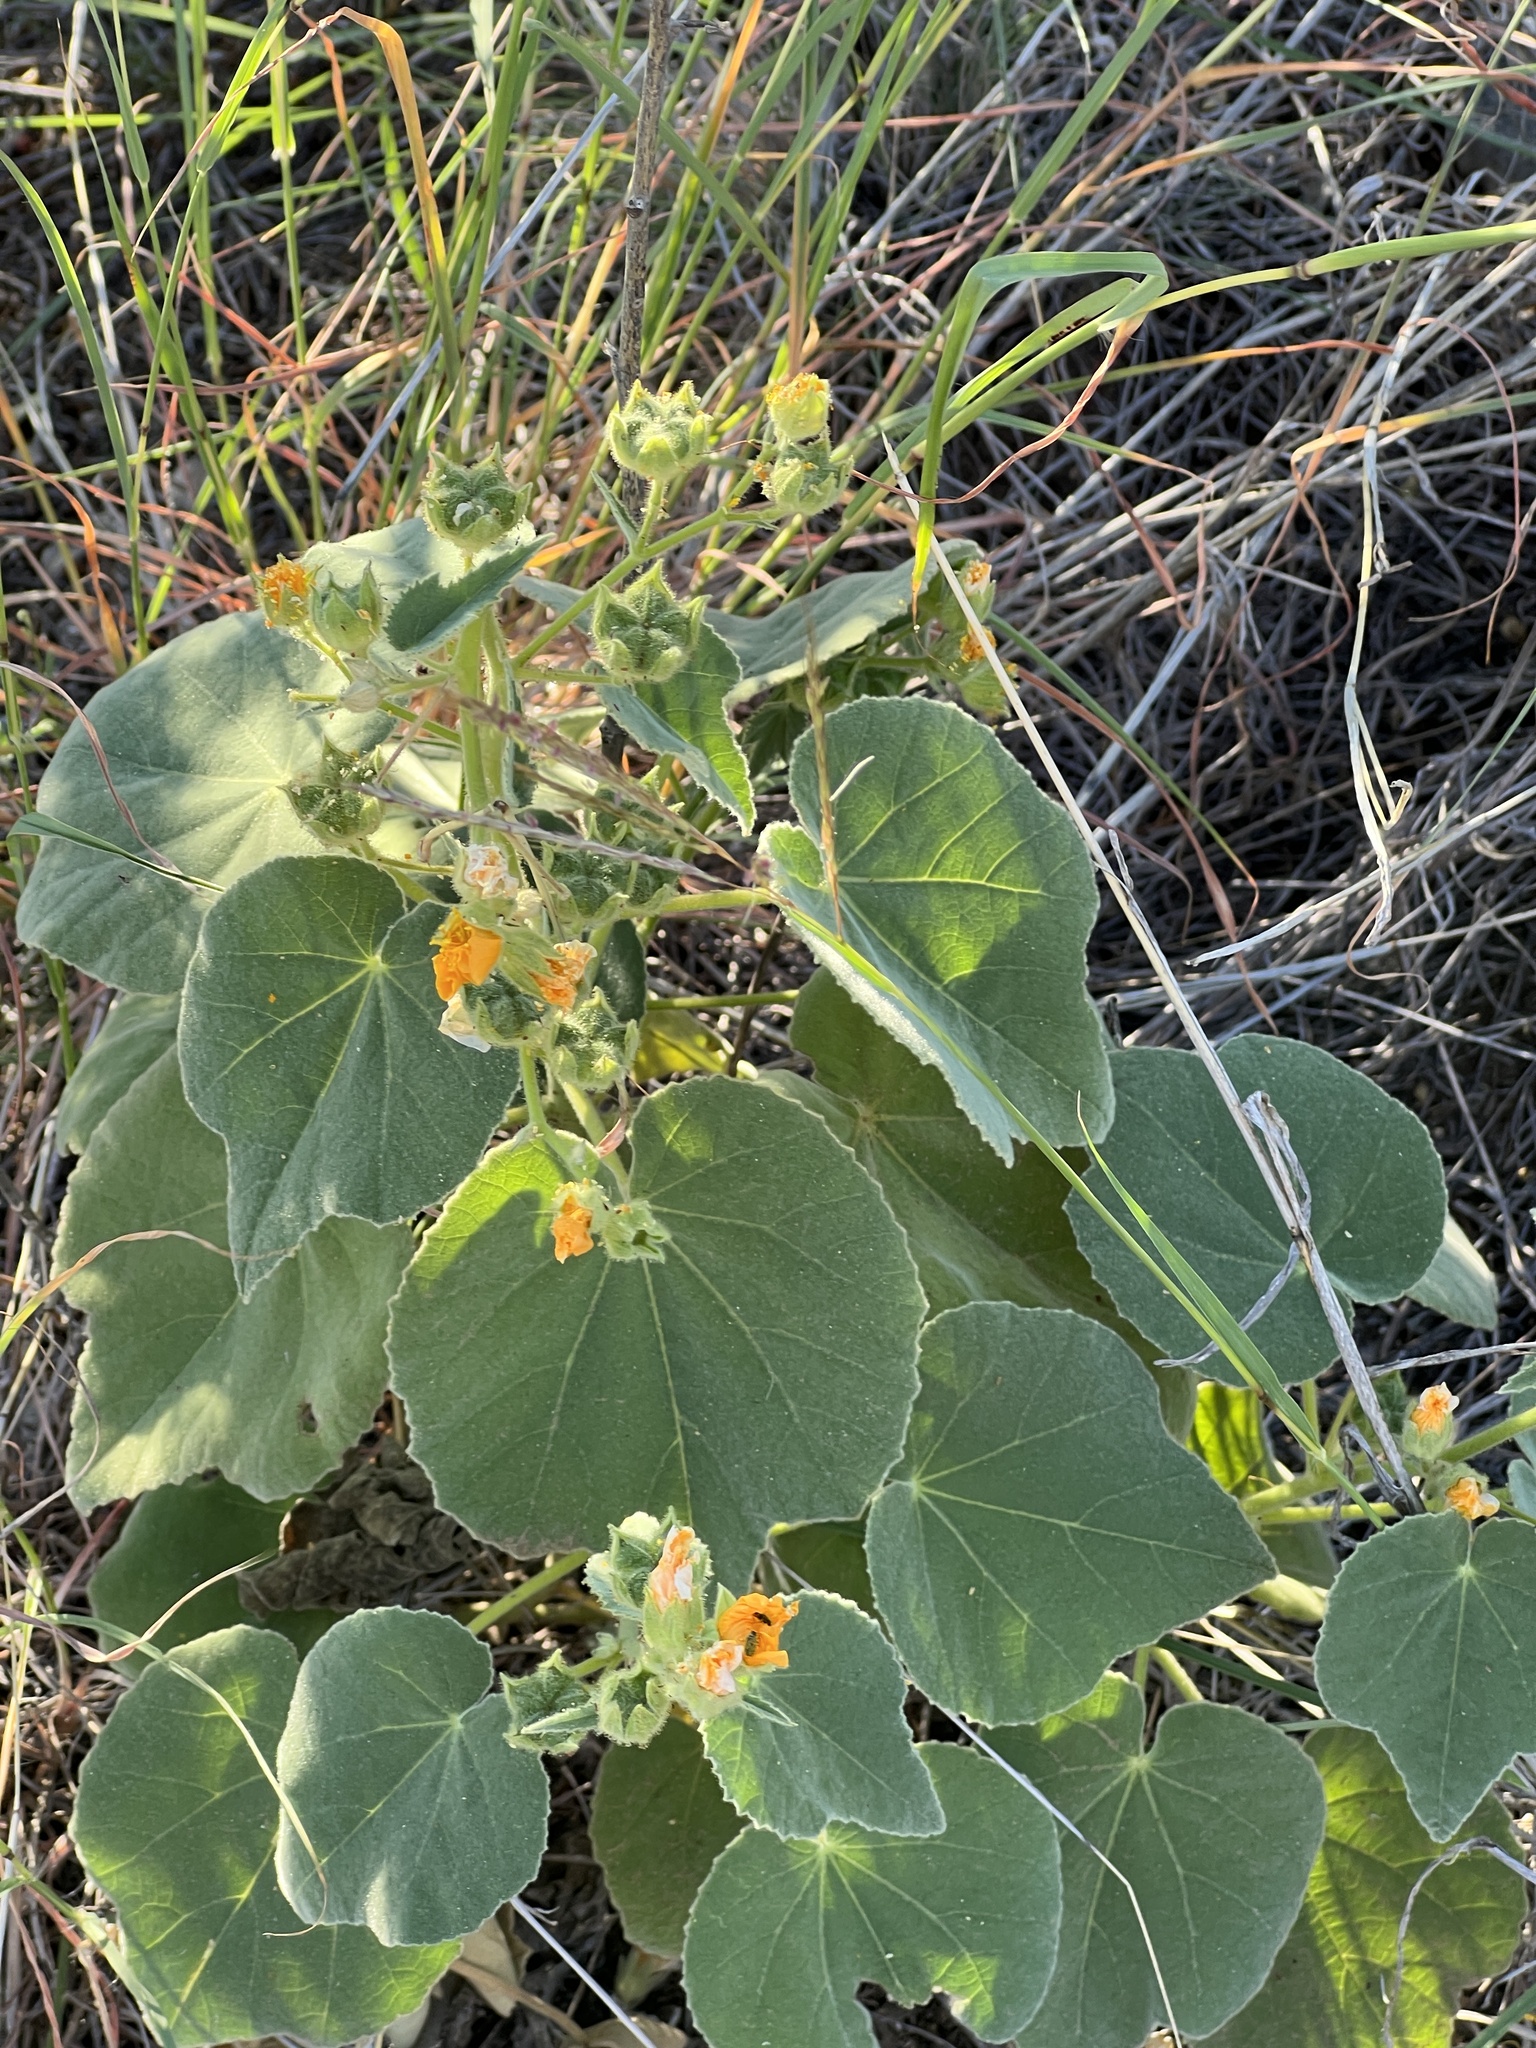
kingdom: Plantae
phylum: Tracheophyta
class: Magnoliopsida
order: Malvales
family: Malvaceae
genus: Allowissadula
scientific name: Allowissadula holosericea
